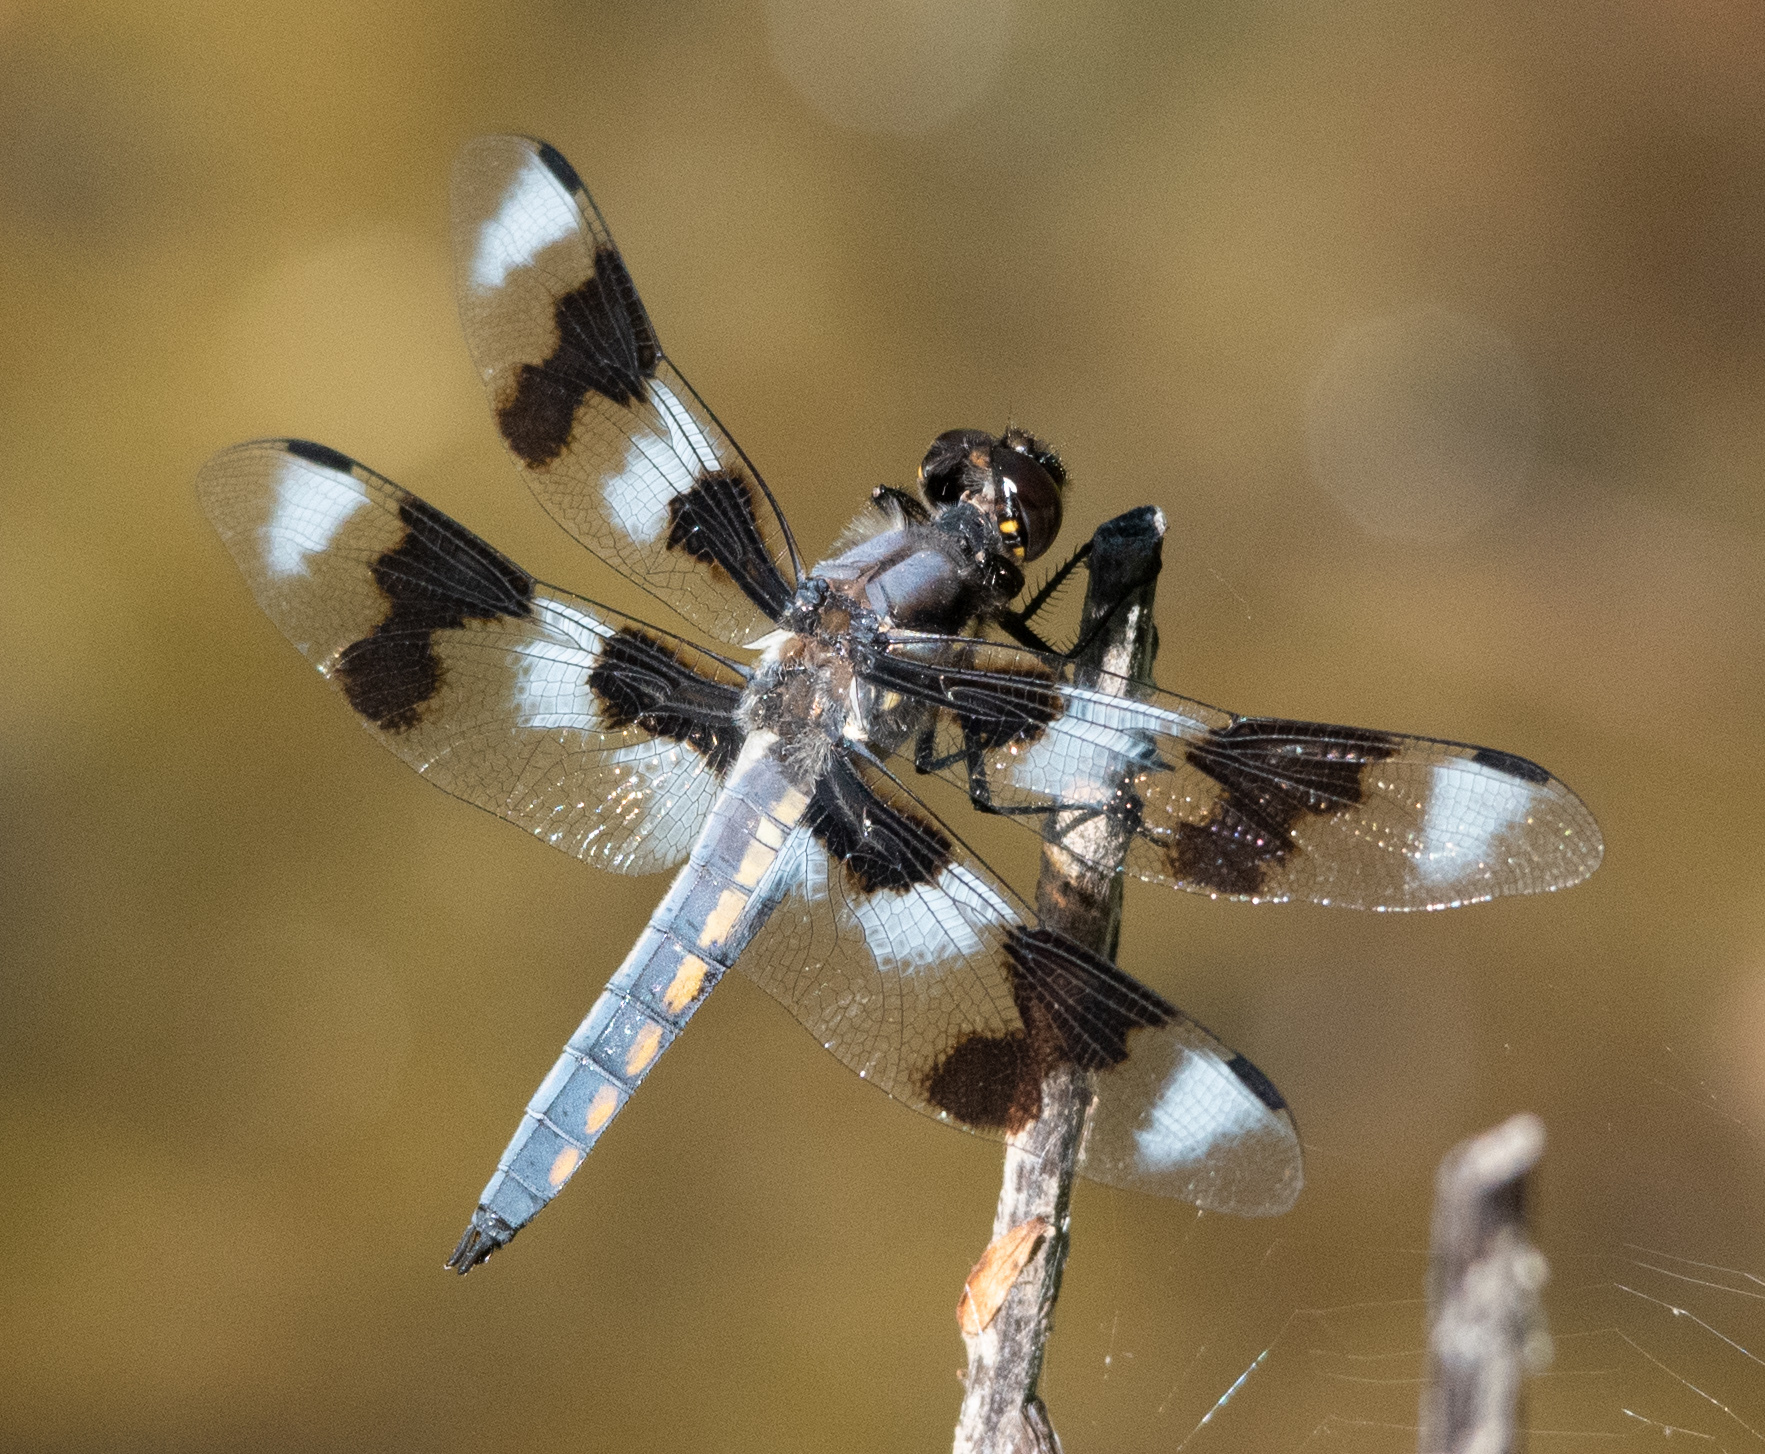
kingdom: Animalia
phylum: Arthropoda
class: Insecta
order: Odonata
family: Libellulidae
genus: Libellula
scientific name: Libellula forensis
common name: Eight-spotted skimmer
